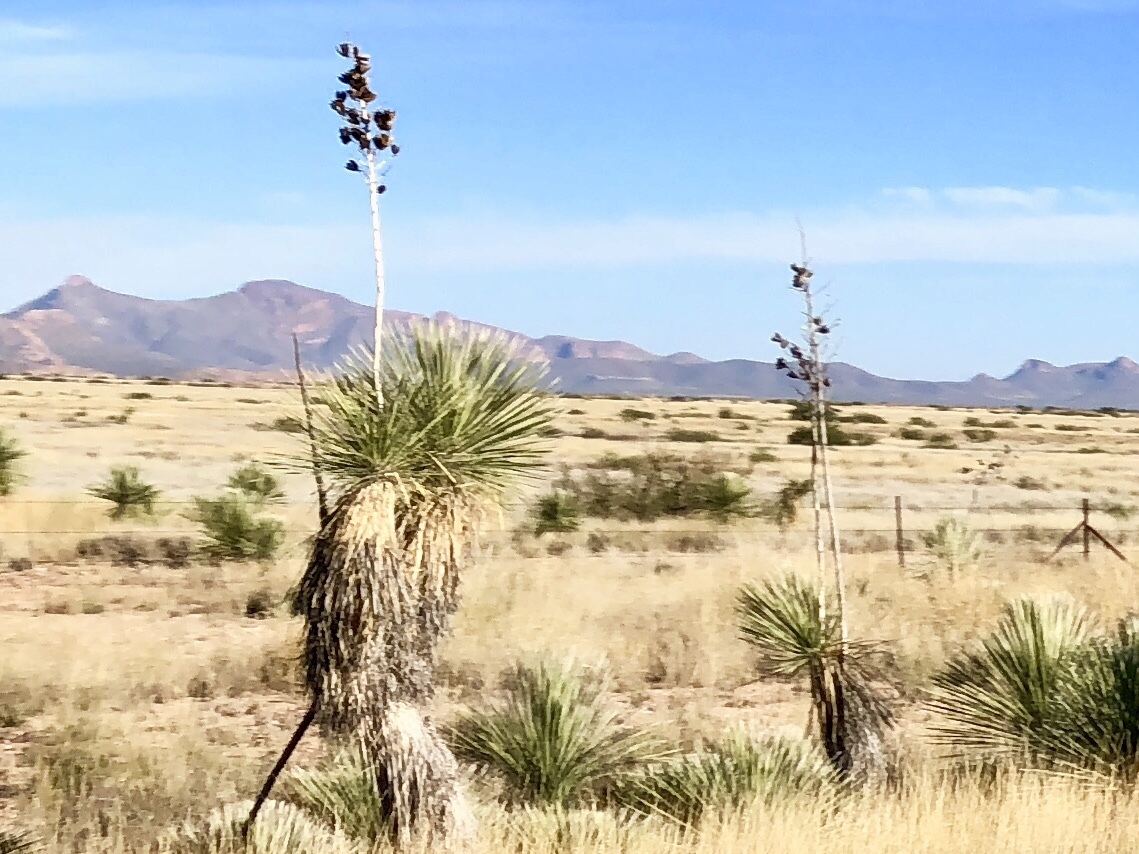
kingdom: Plantae
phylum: Tracheophyta
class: Liliopsida
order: Asparagales
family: Asparagaceae
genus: Yucca
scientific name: Yucca elata
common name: Palmella
